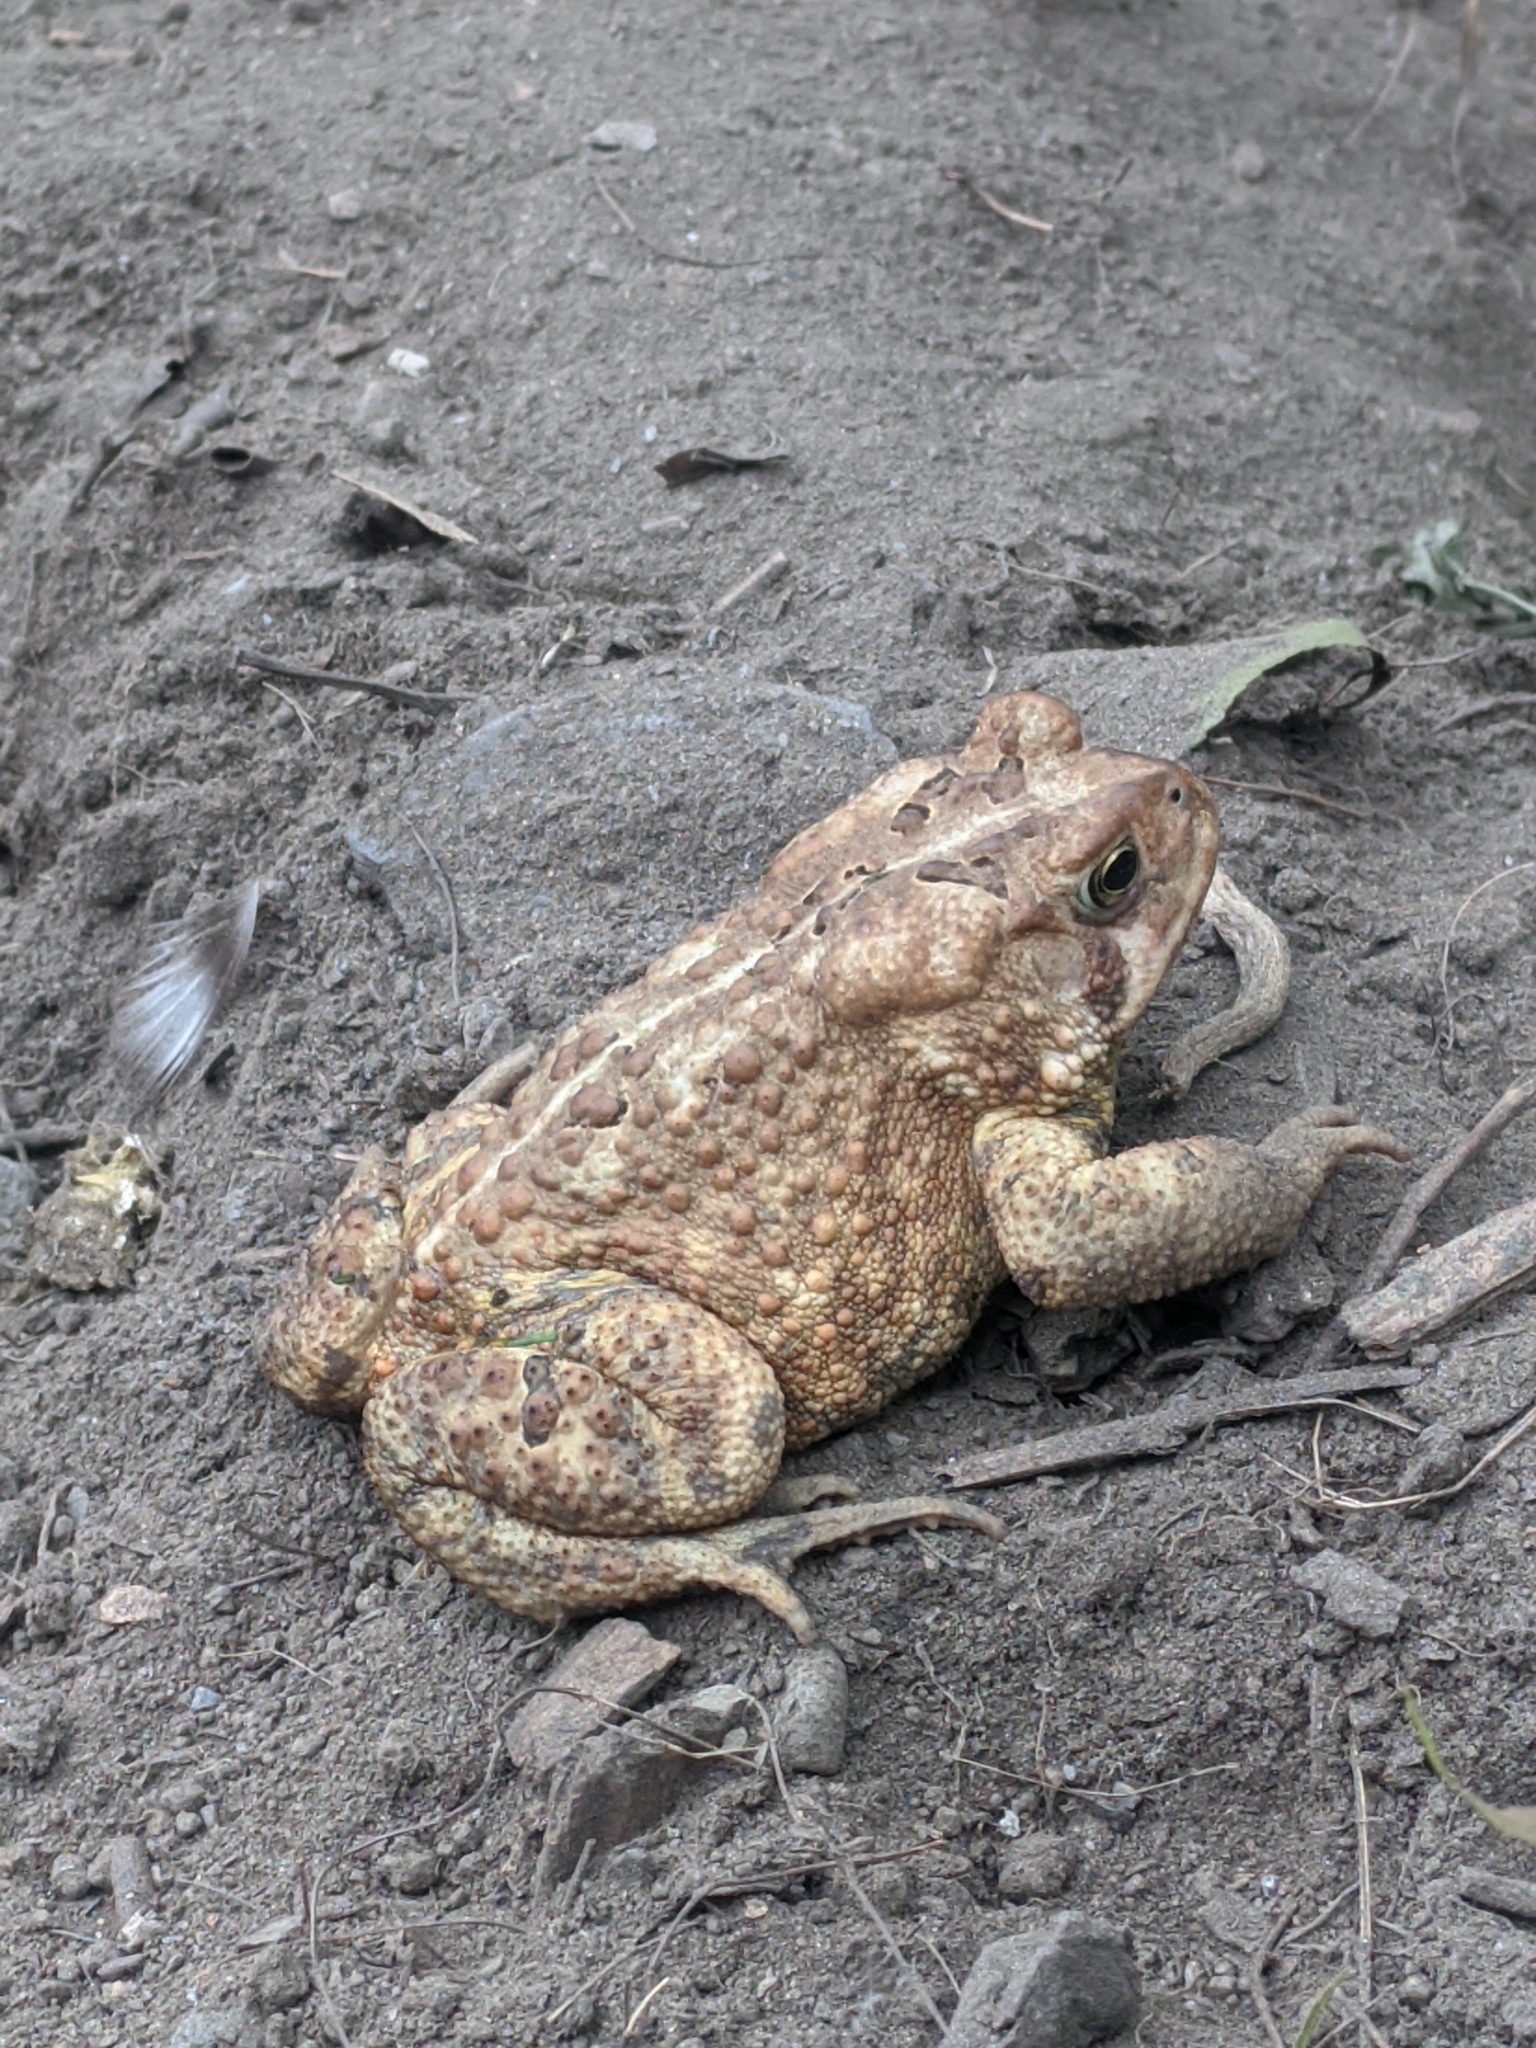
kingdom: Animalia
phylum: Chordata
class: Amphibia
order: Anura
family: Bufonidae
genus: Anaxyrus
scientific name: Anaxyrus americanus
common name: American toad
